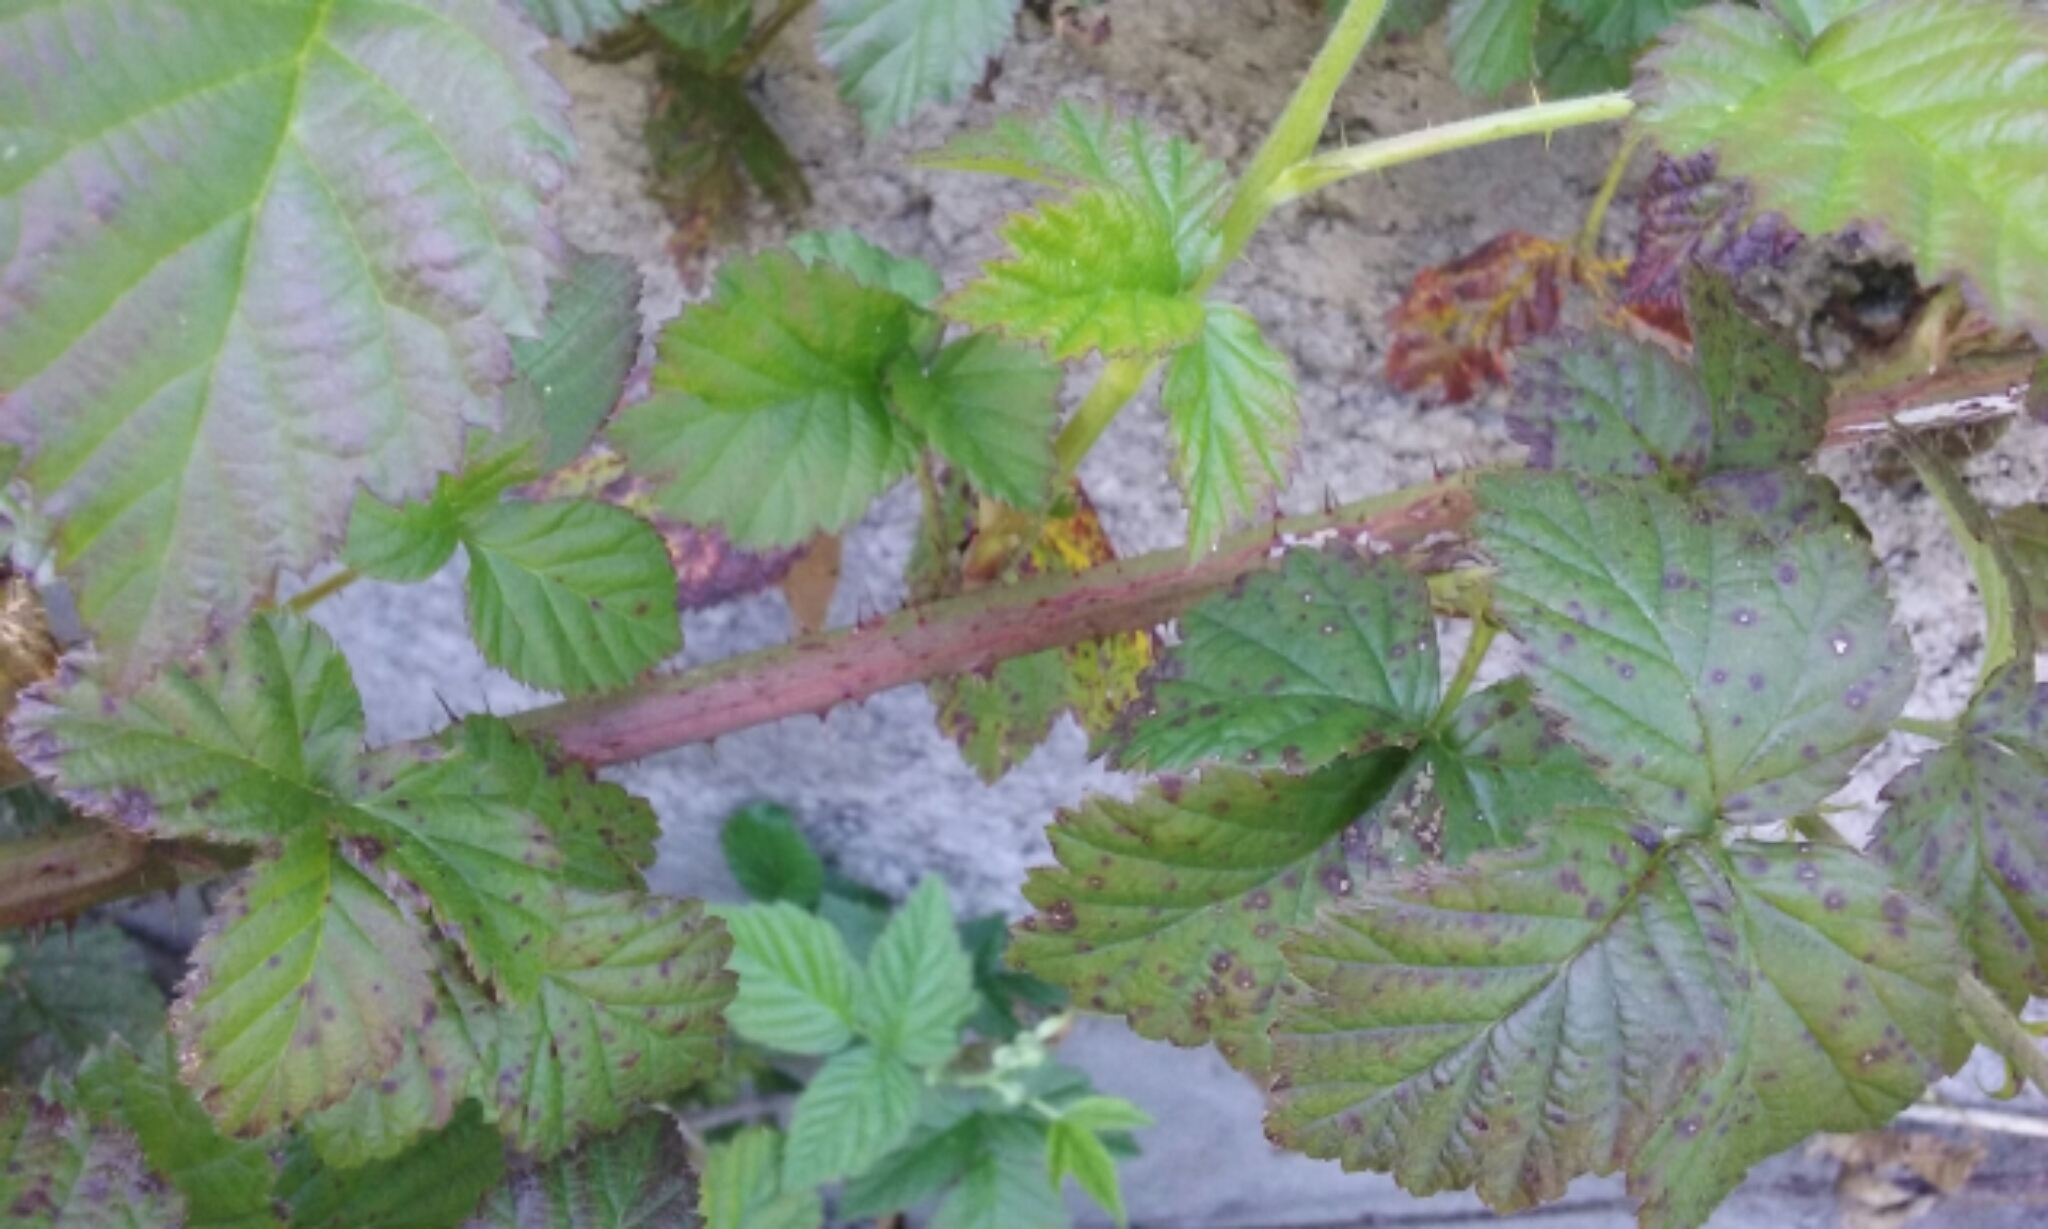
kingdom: Plantae
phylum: Tracheophyta
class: Magnoliopsida
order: Rosales
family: Rosaceae
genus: Rubus
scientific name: Rubus ursinus
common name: Pacific blackberry
